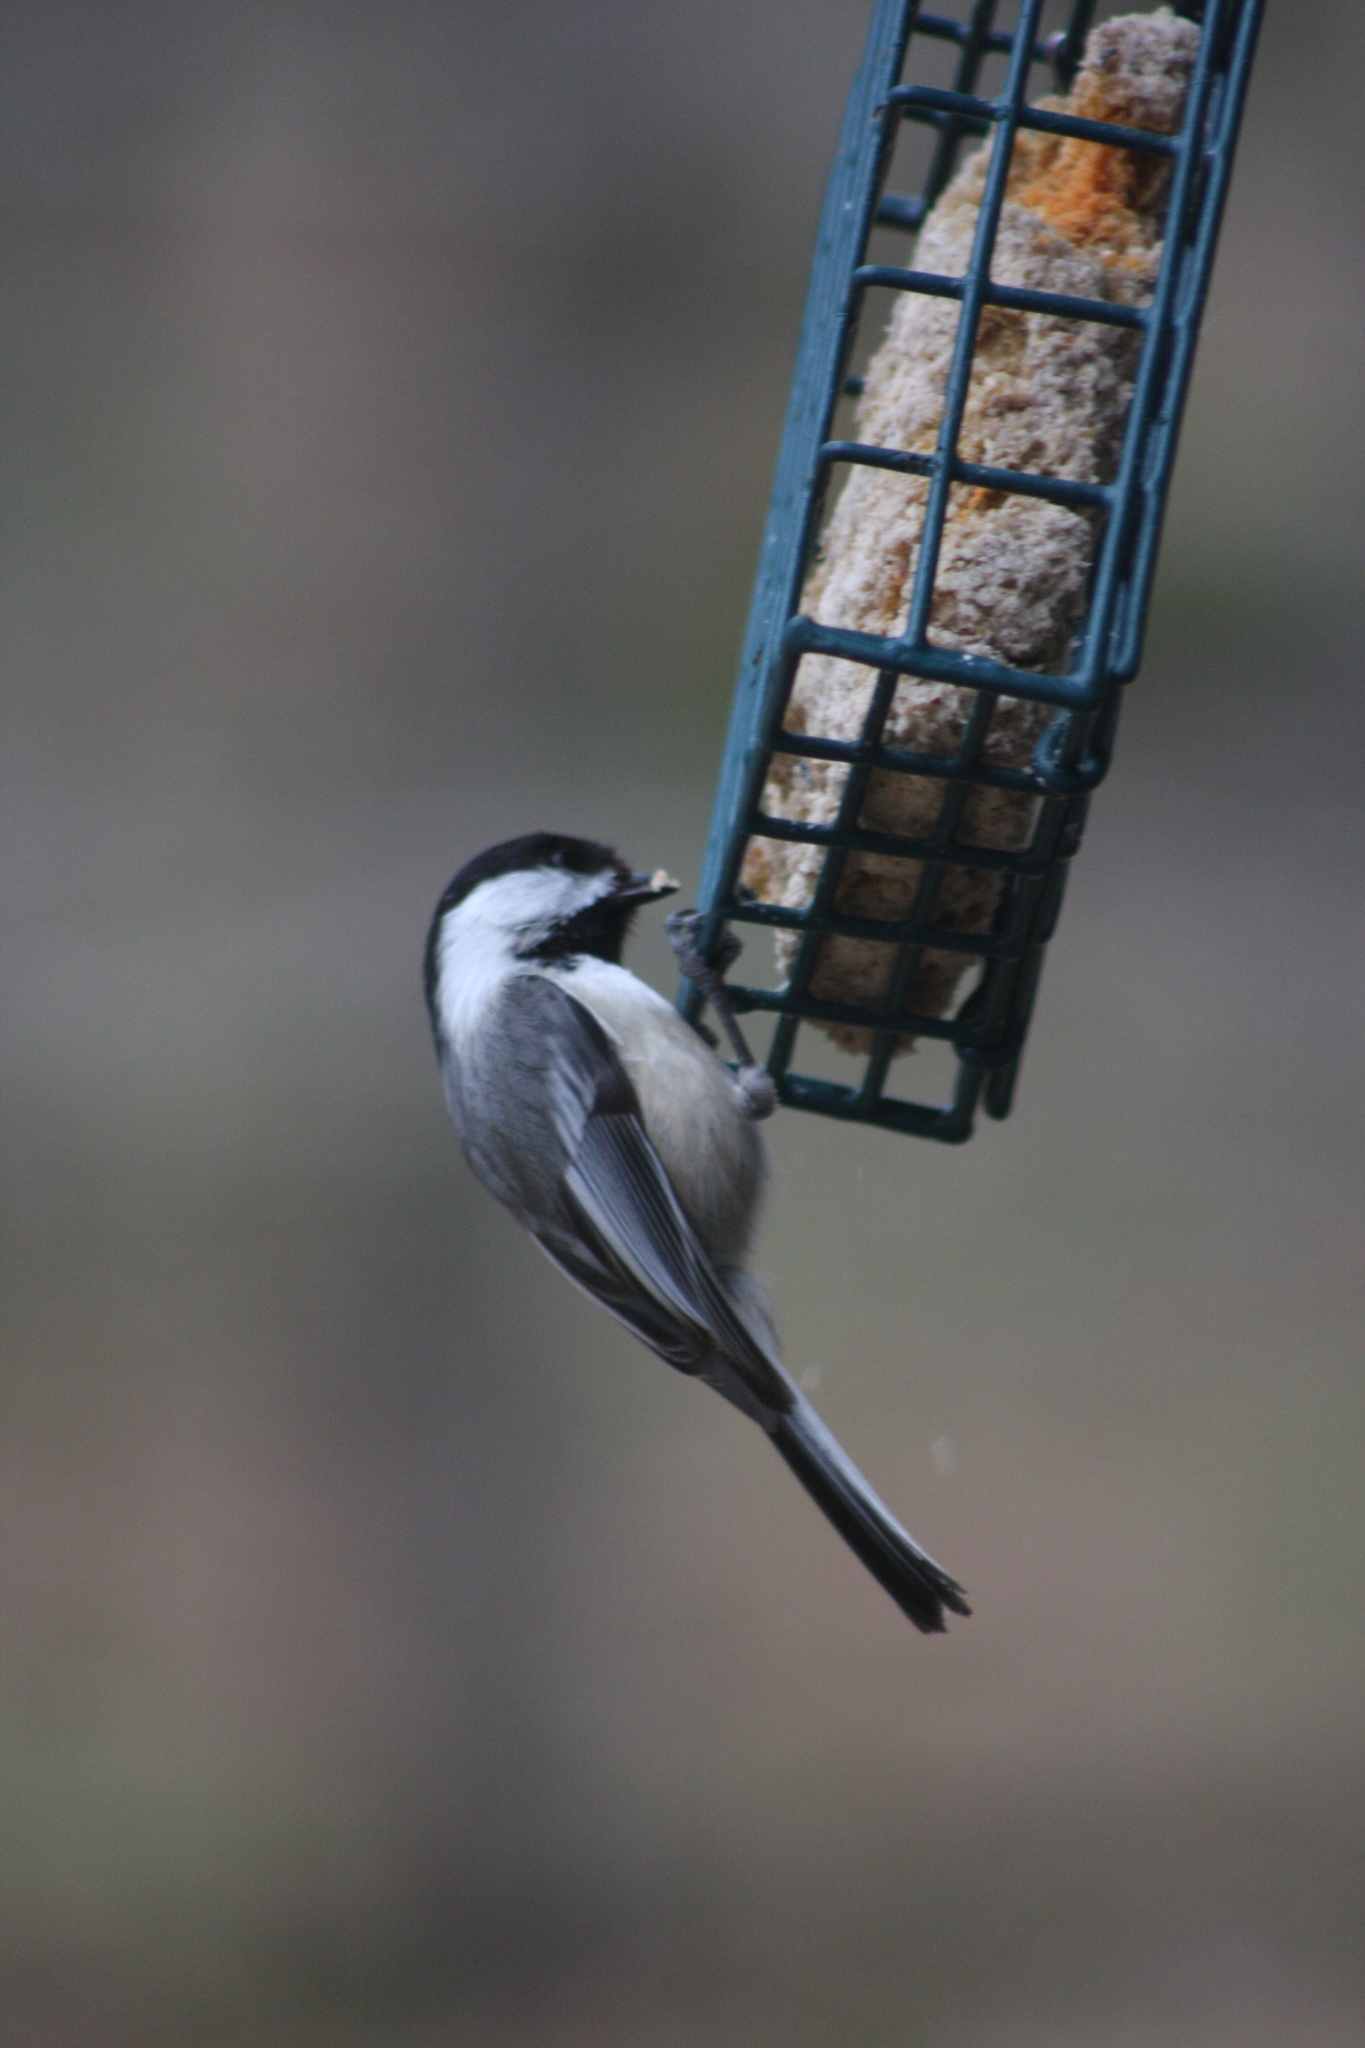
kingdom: Animalia
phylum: Chordata
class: Aves
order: Passeriformes
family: Paridae
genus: Poecile
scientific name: Poecile atricapillus
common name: Black-capped chickadee
